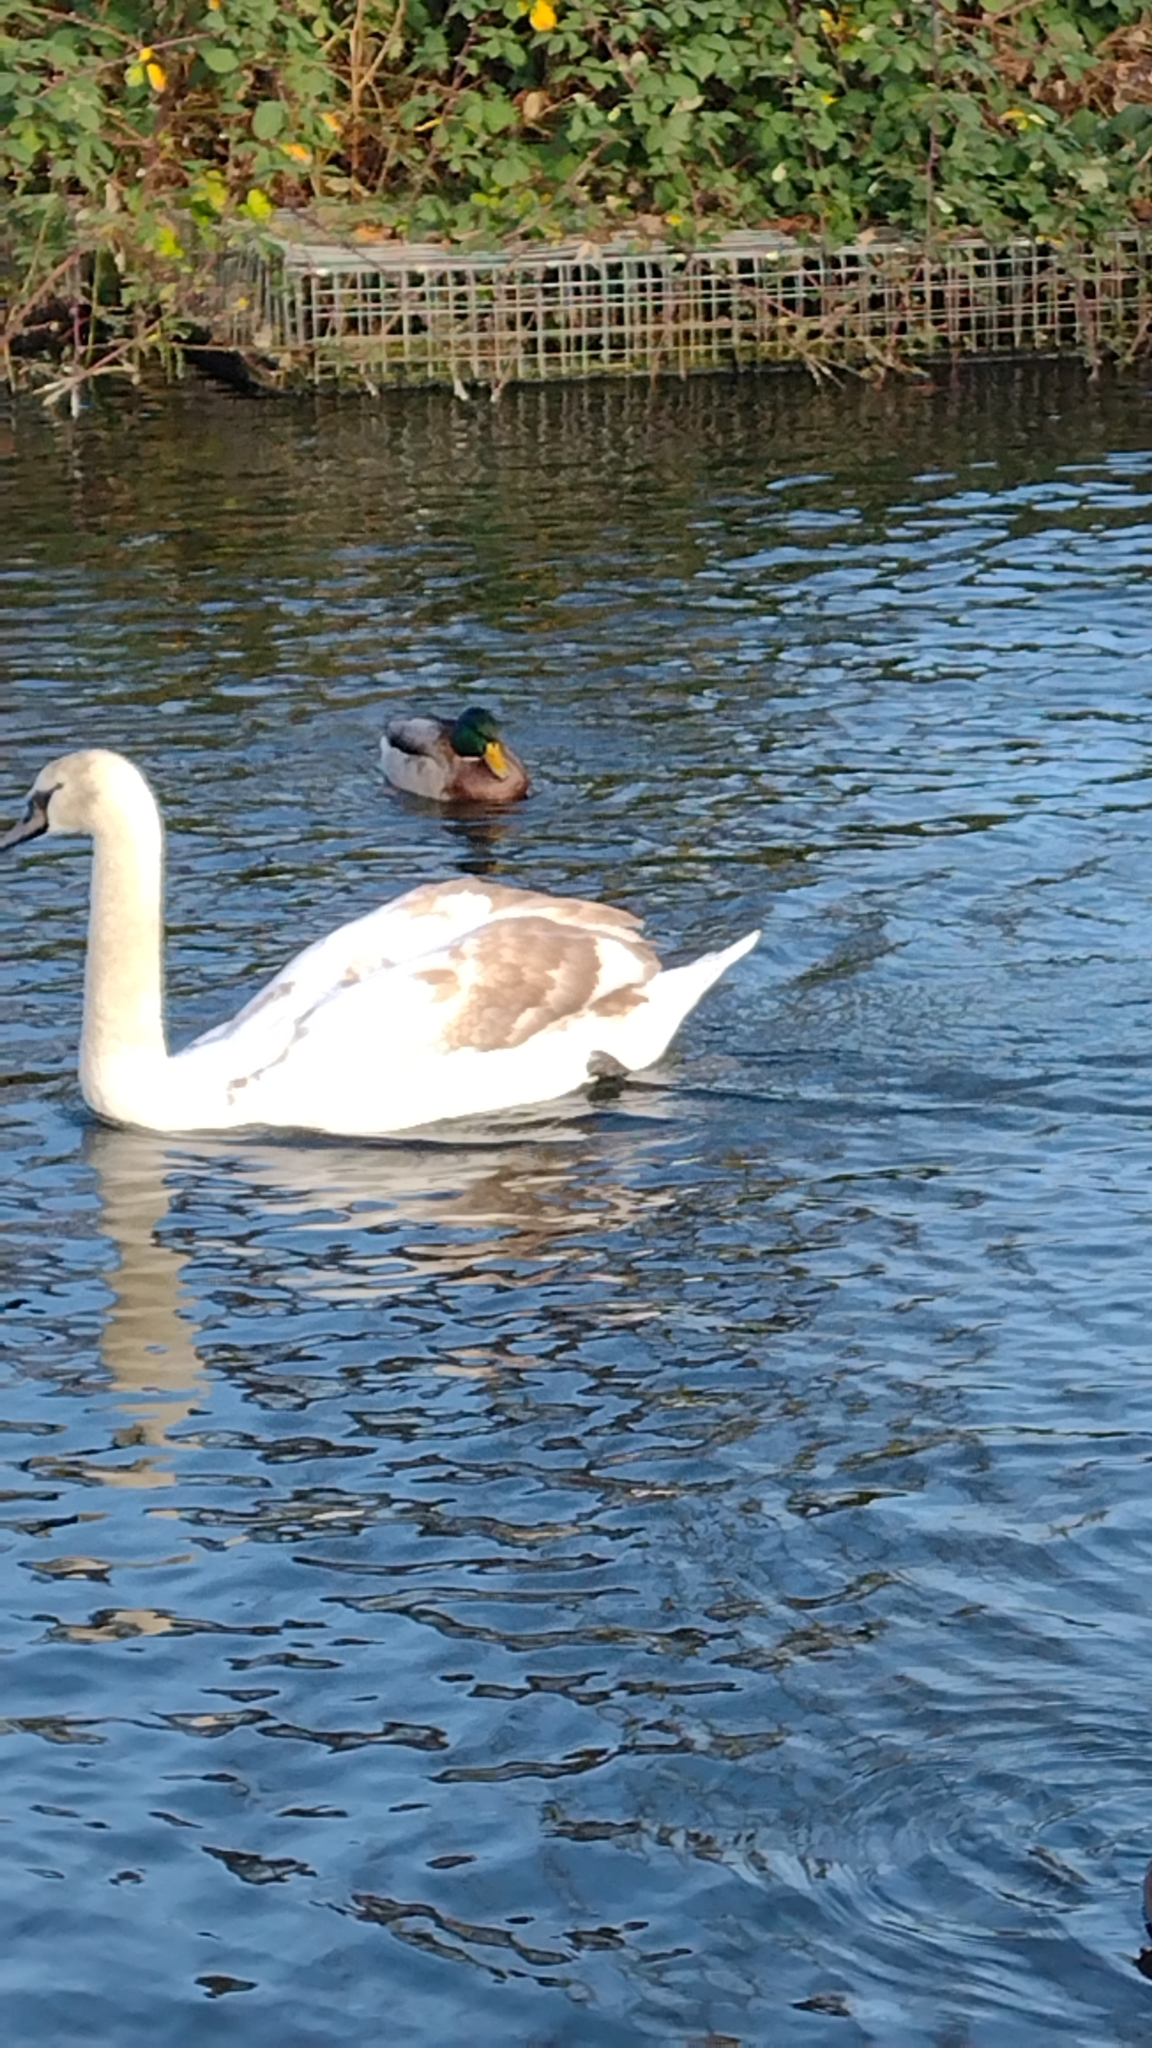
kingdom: Animalia
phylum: Chordata
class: Aves
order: Anseriformes
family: Anatidae
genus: Cygnus
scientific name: Cygnus olor
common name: Mute swan
